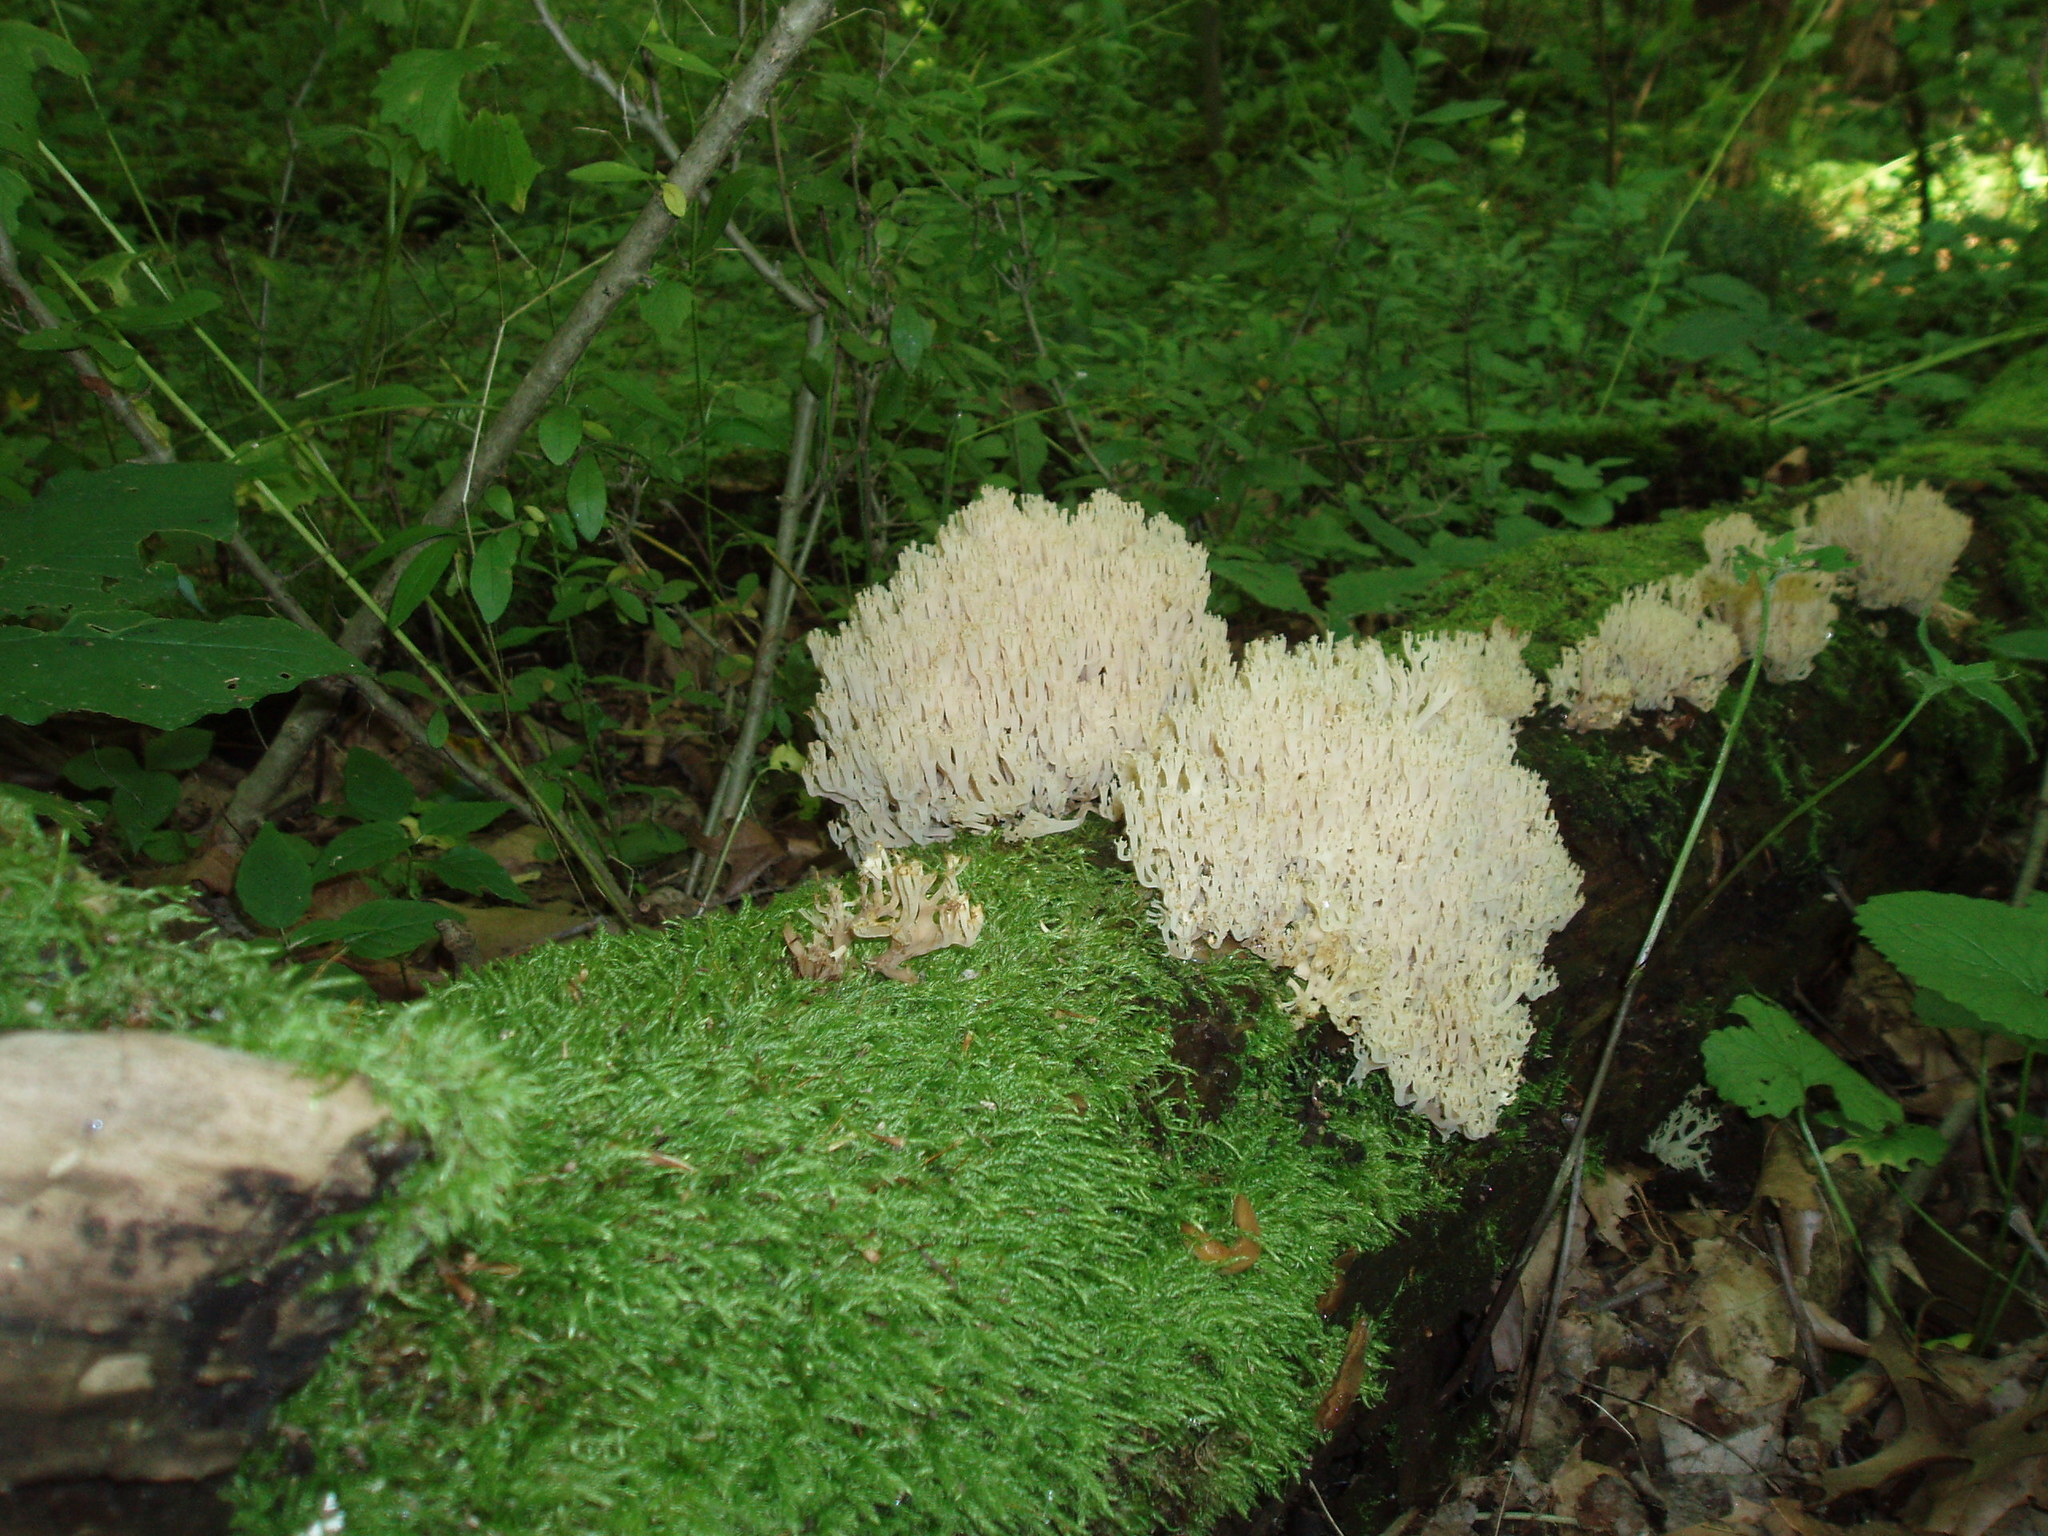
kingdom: Fungi
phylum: Basidiomycota
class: Agaricomycetes
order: Russulales
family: Auriscalpiaceae
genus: Artomyces
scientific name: Artomyces pyxidatus
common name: Crown-tipped coral fungus
